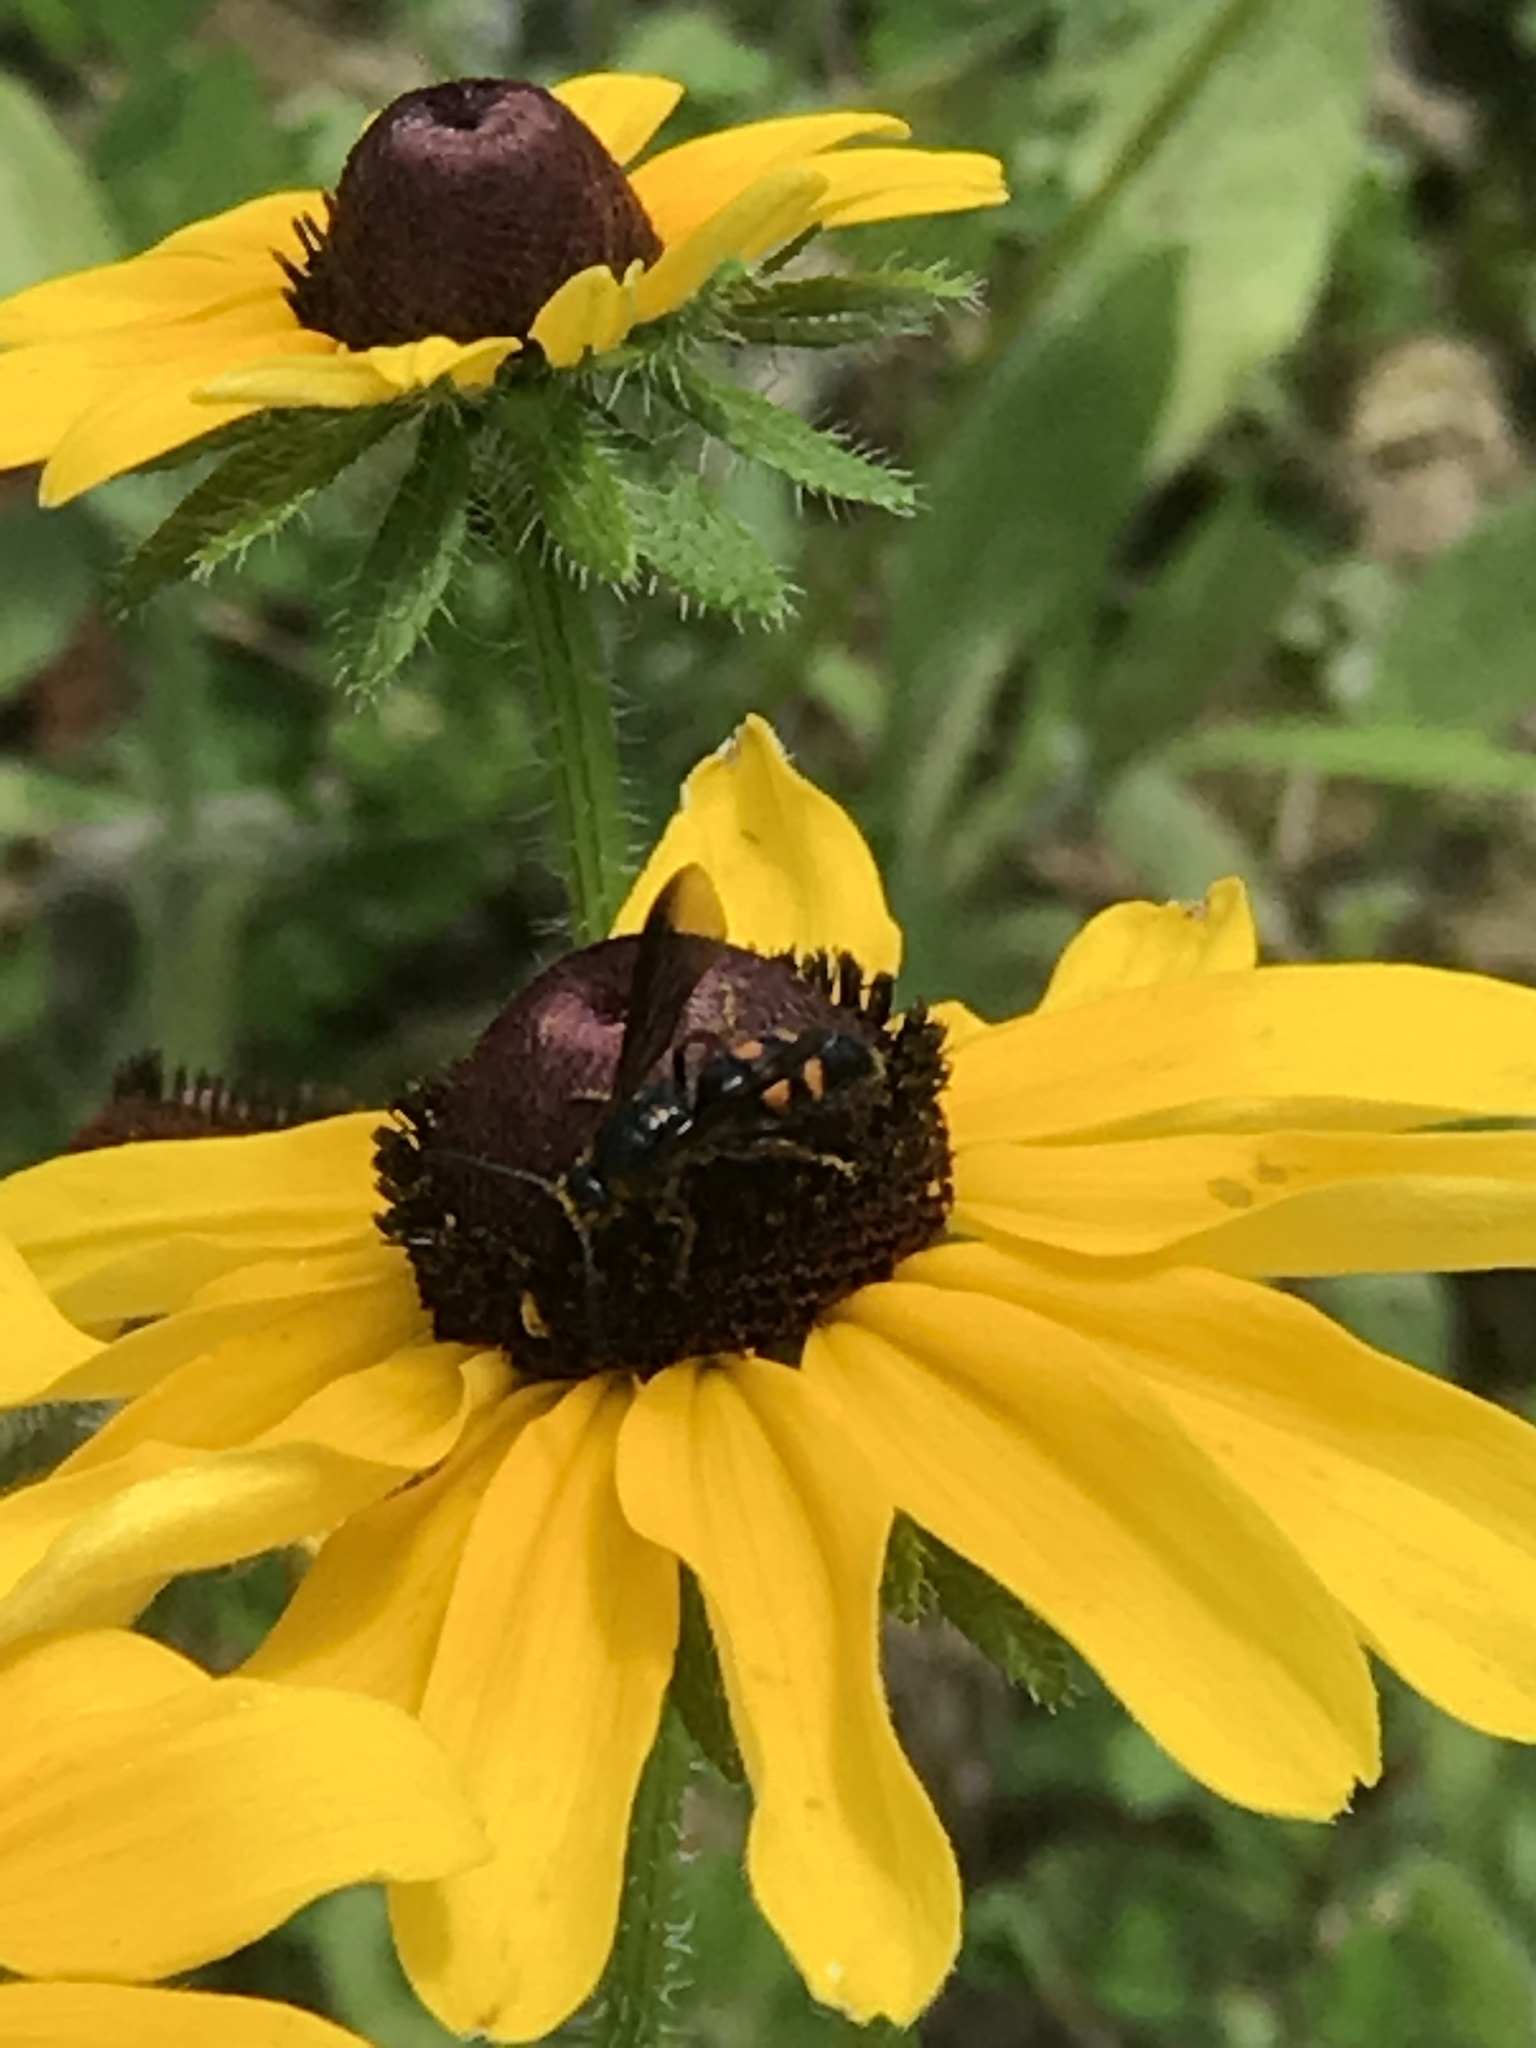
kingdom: Animalia
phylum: Arthropoda
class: Insecta
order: Hymenoptera
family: Scoliidae
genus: Scolia
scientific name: Scolia nobilitata
